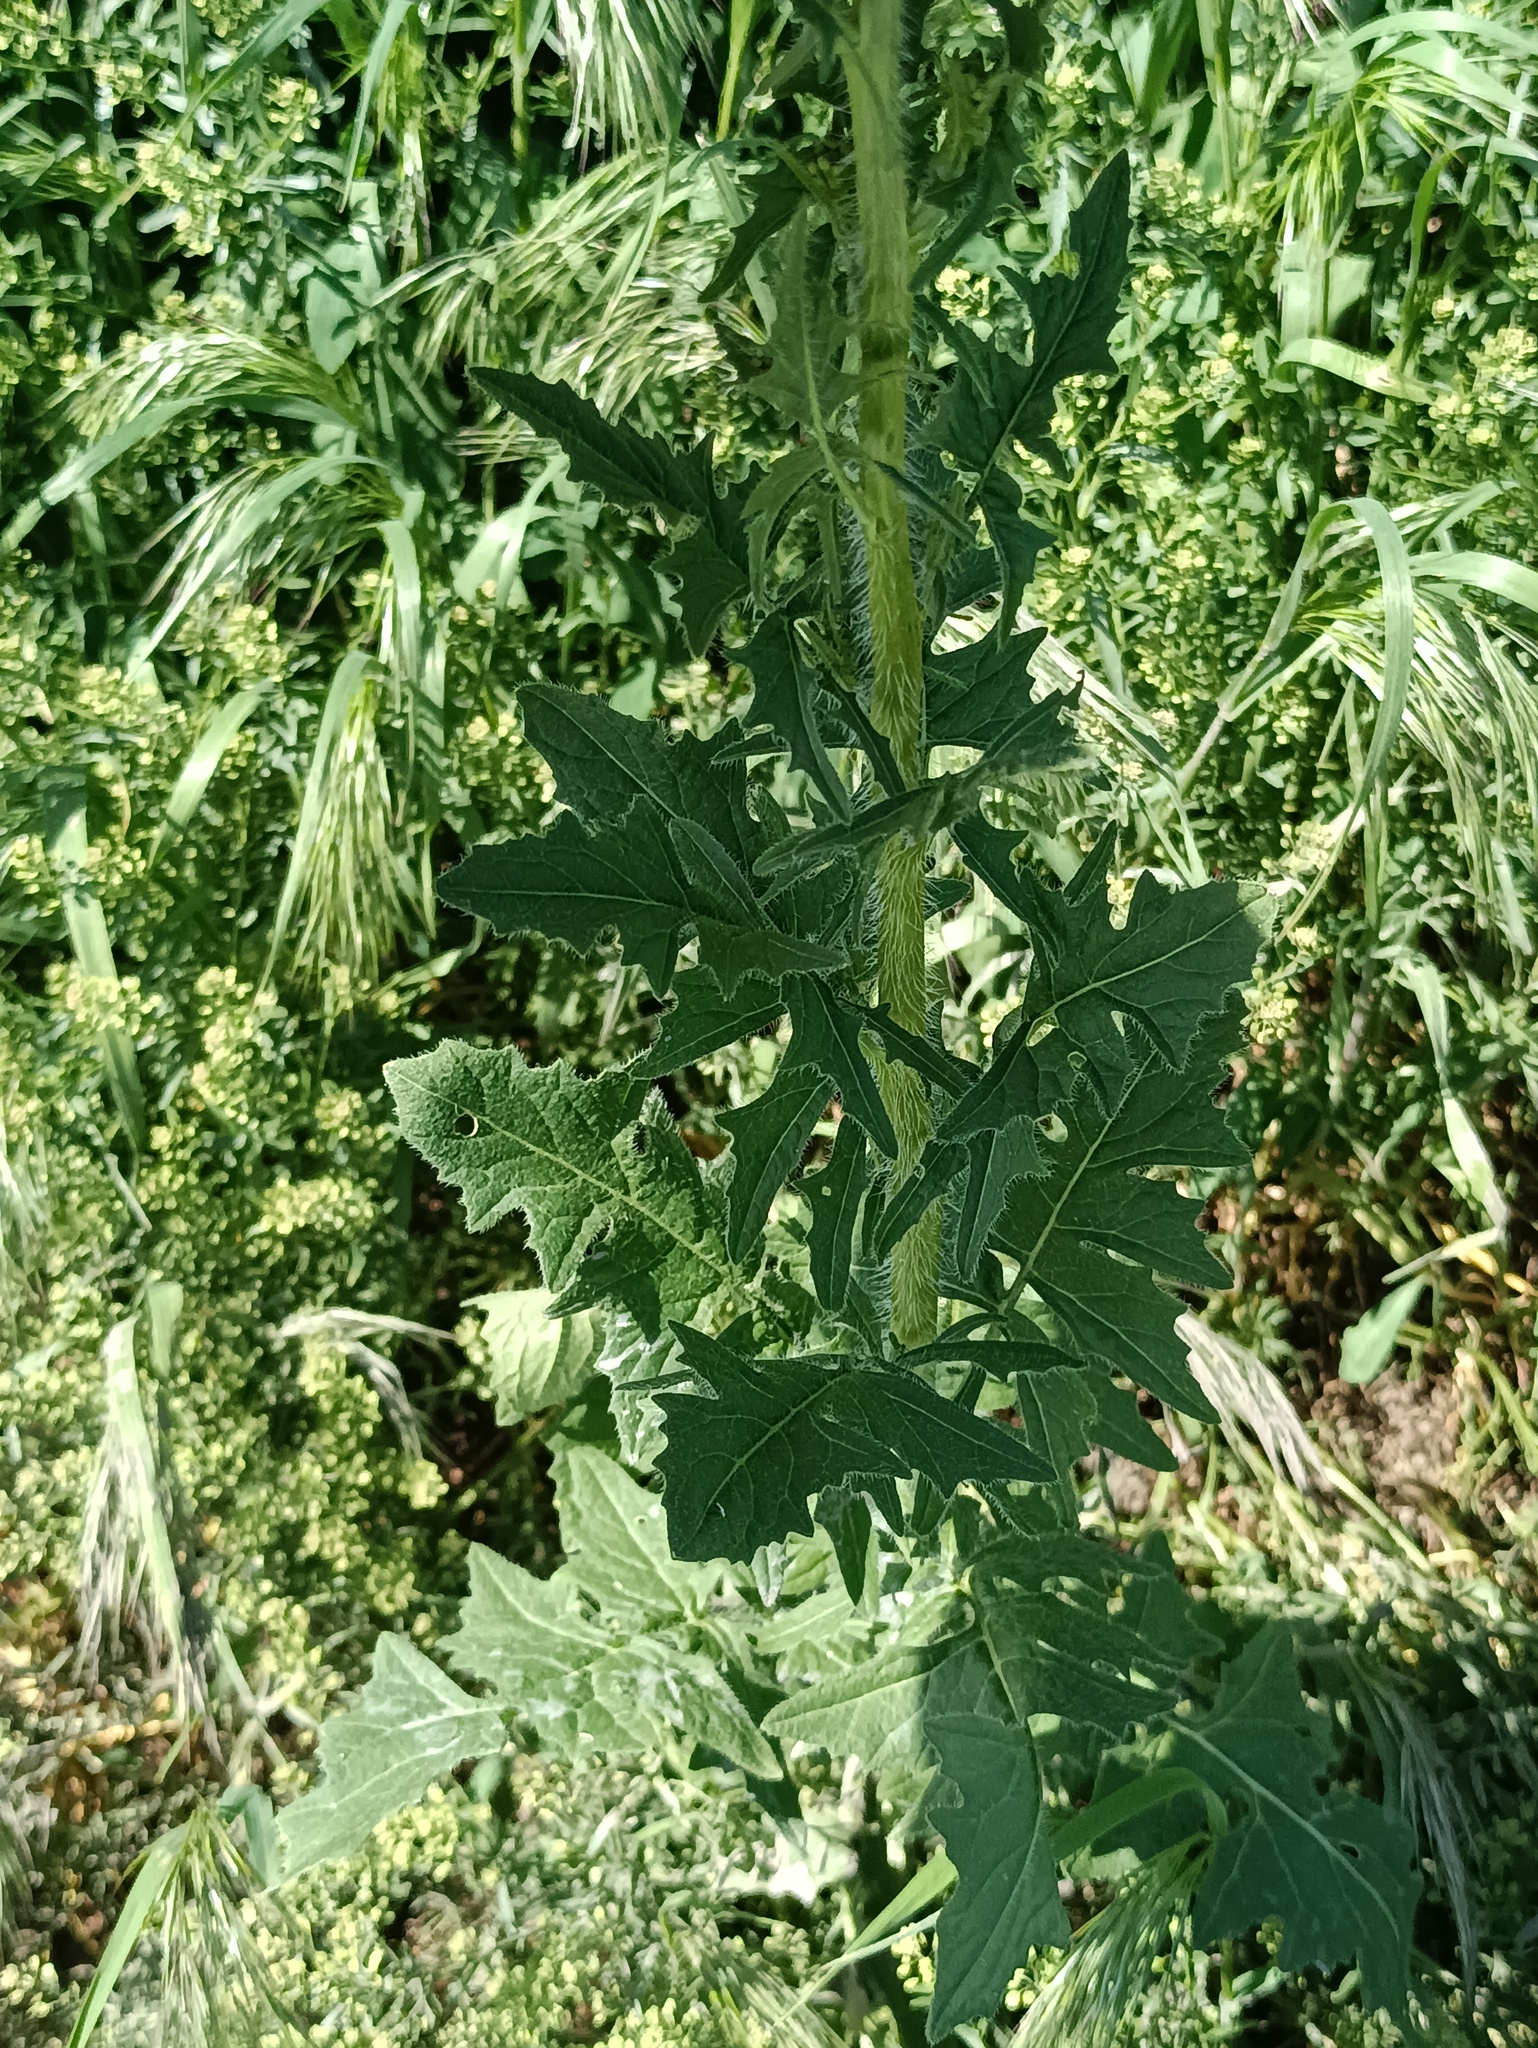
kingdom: Plantae
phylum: Tracheophyta
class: Magnoliopsida
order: Brassicales
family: Brassicaceae
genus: Sisymbrium
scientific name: Sisymbrium loeselii
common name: False london-rocket
